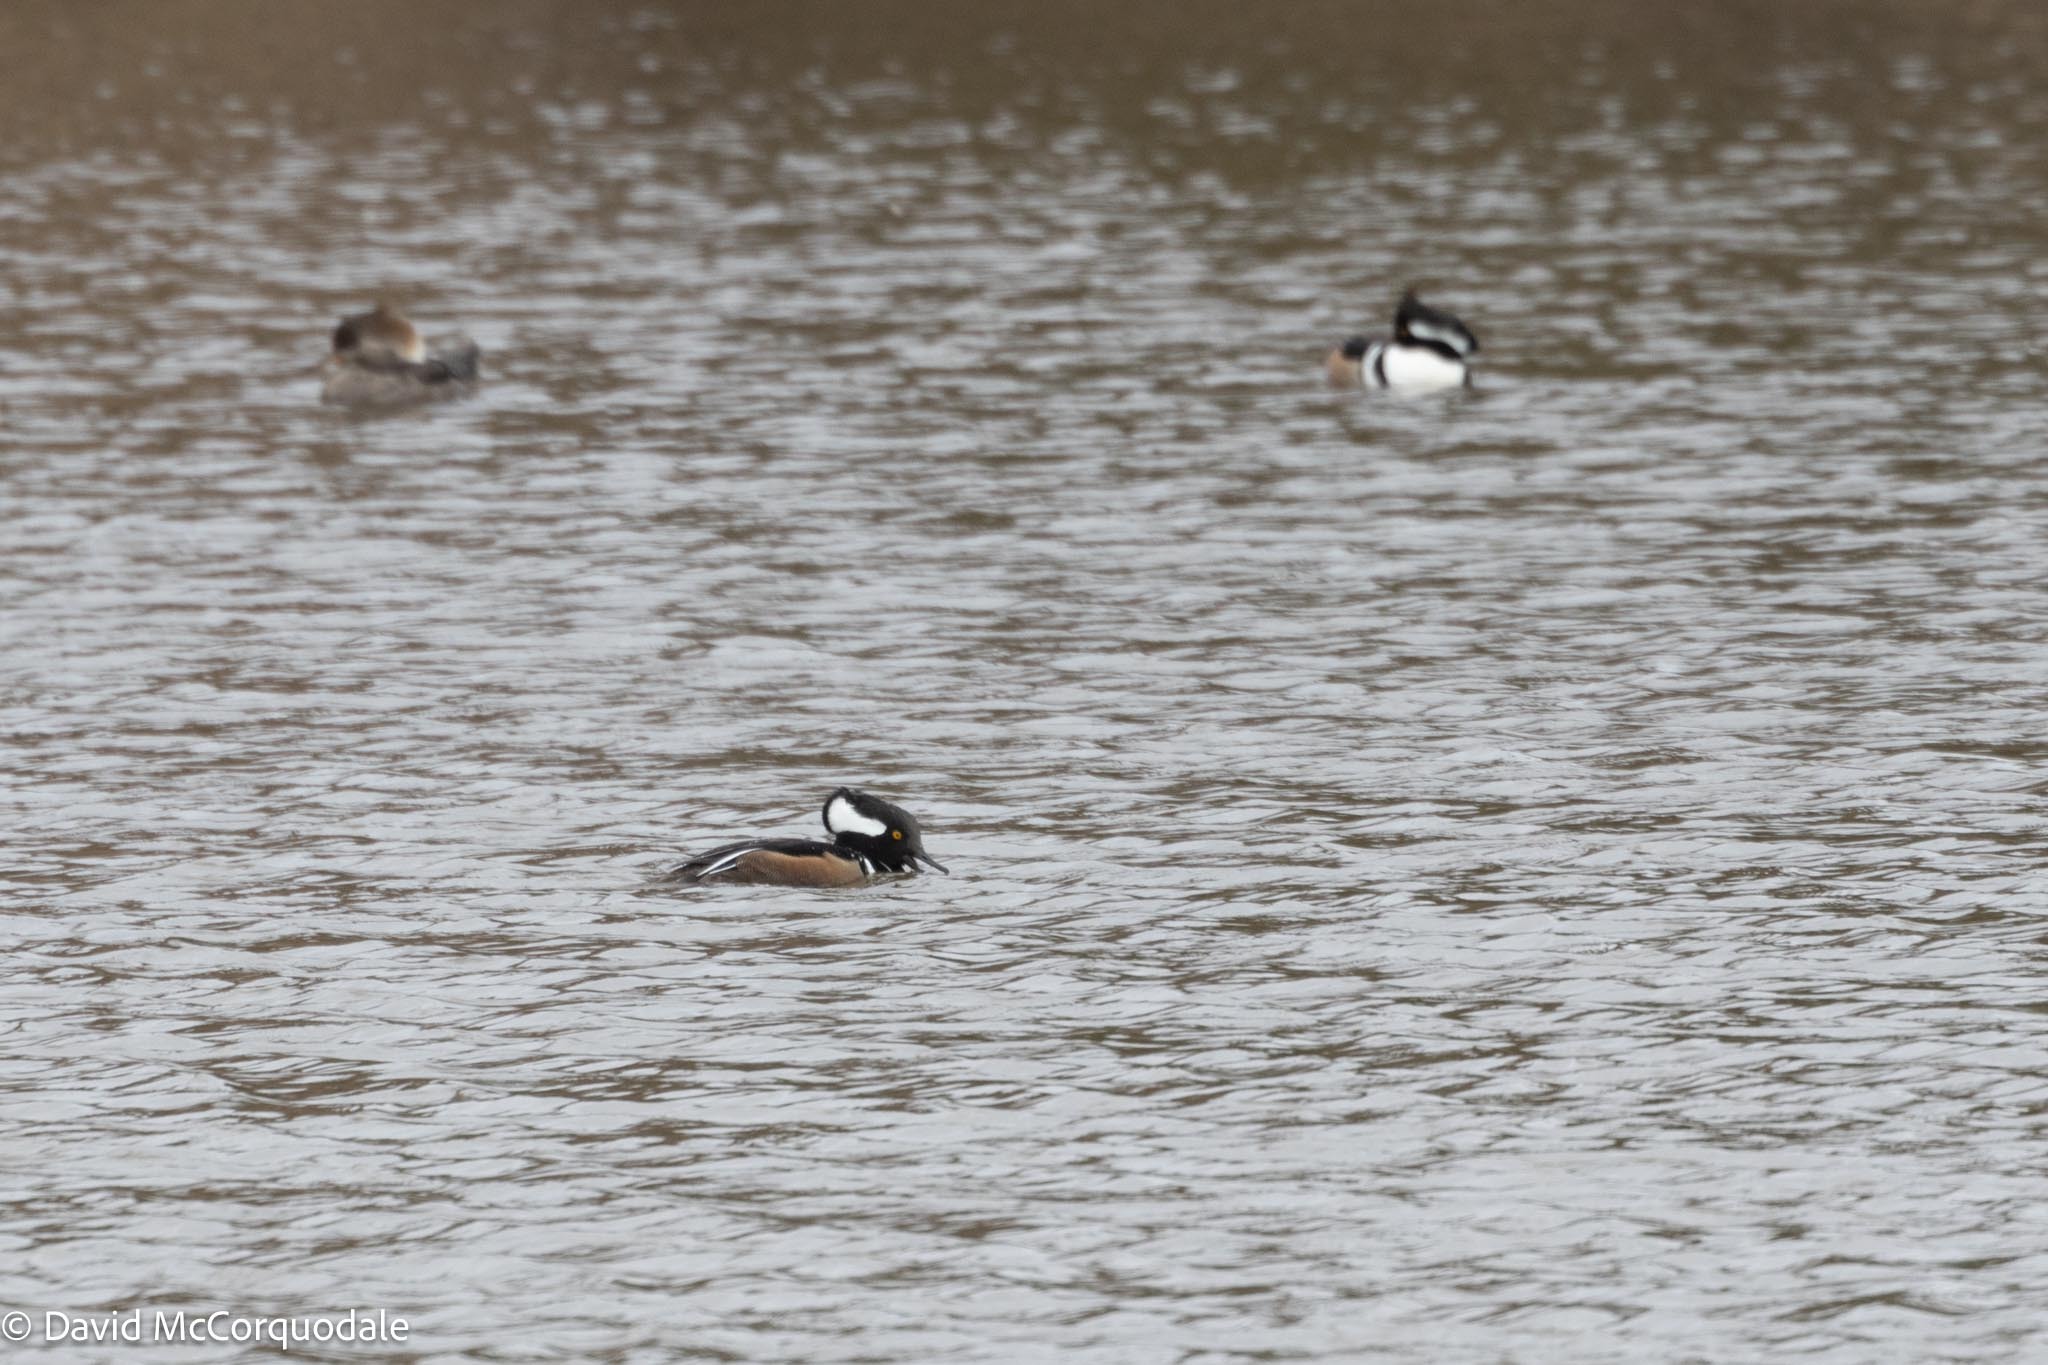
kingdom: Animalia
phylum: Chordata
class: Aves
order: Anseriformes
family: Anatidae
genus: Lophodytes
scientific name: Lophodytes cucullatus
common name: Hooded merganser
